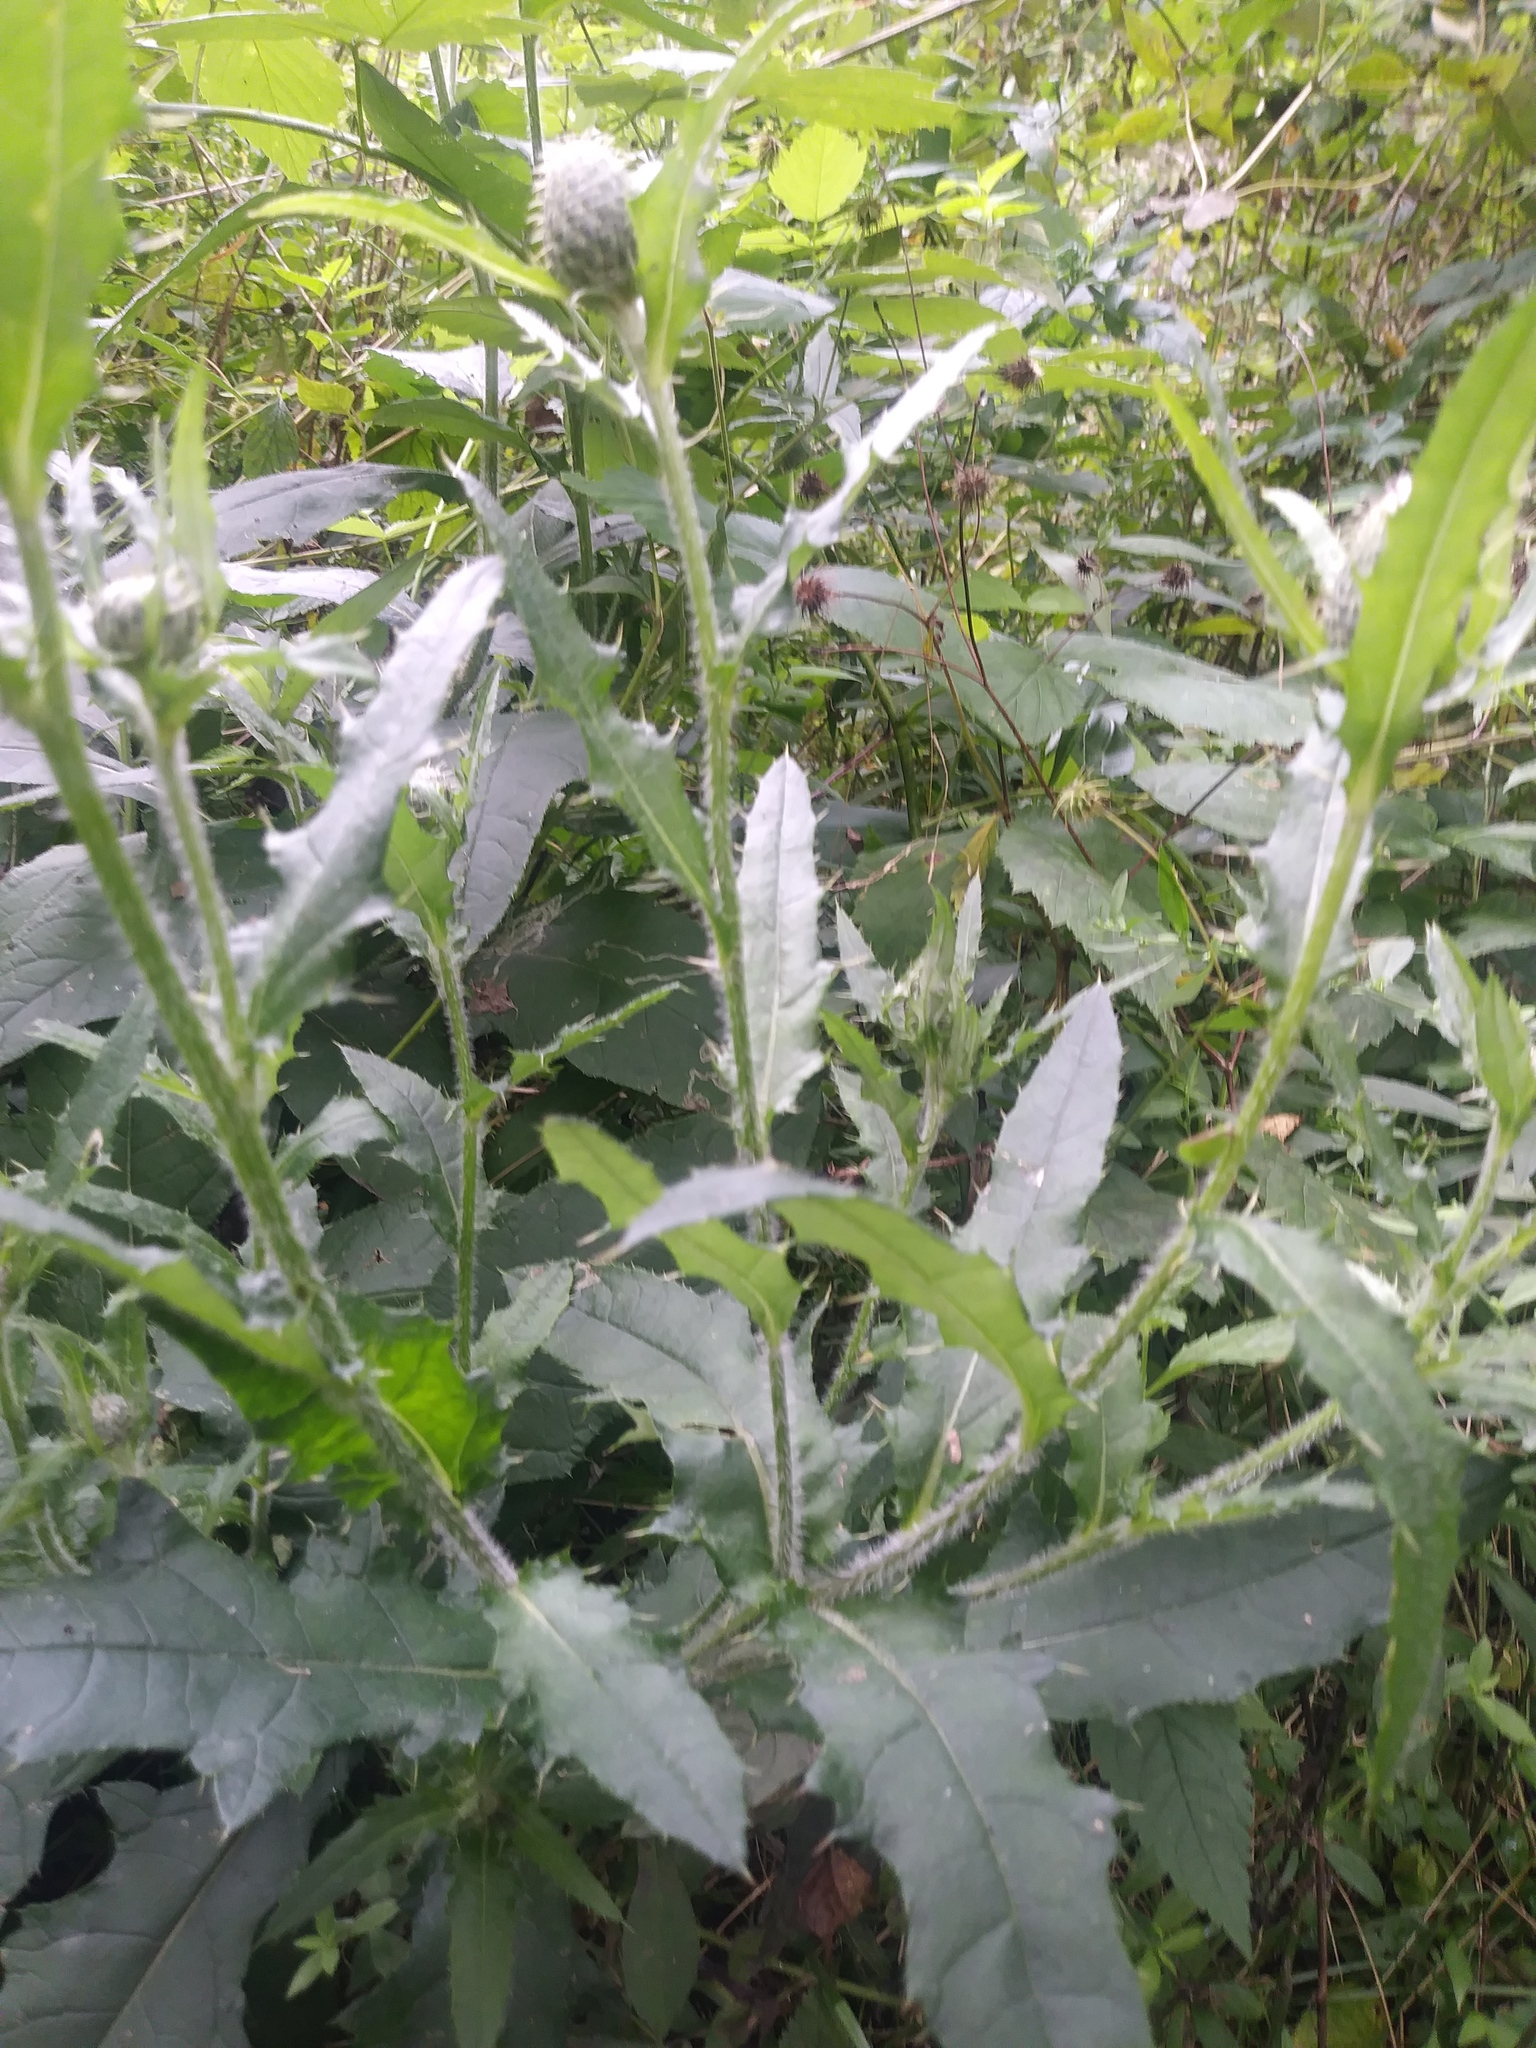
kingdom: Plantae
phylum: Tracheophyta
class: Magnoliopsida
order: Asterales
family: Asteraceae
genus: Cirsium
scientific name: Cirsium altissimum
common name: Roadside thistle
